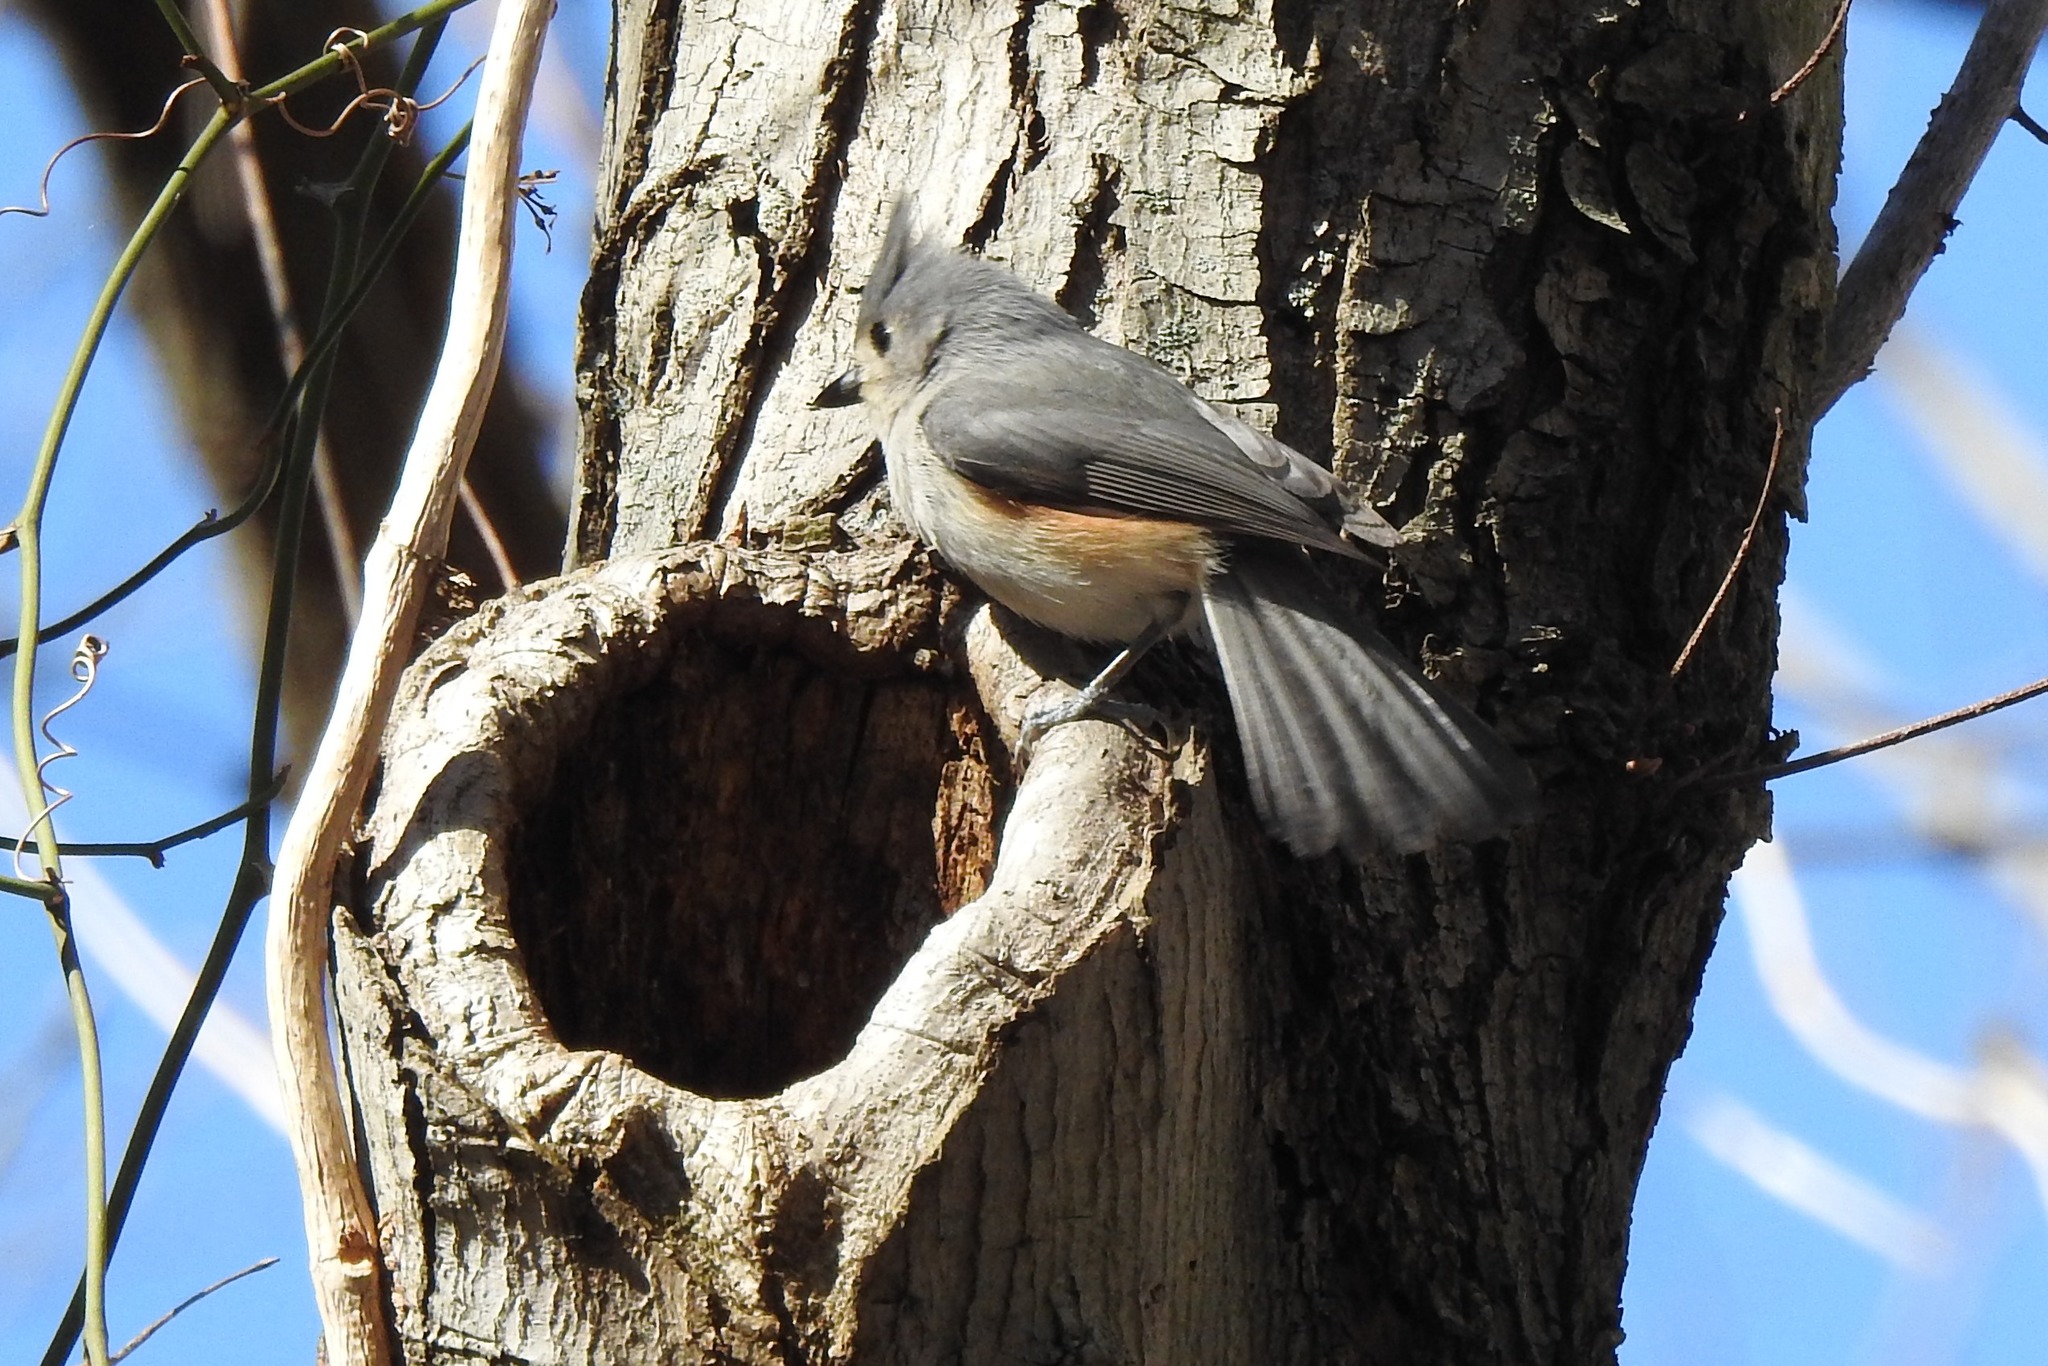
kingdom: Animalia
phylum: Chordata
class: Aves
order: Passeriformes
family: Paridae
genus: Baeolophus
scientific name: Baeolophus bicolor
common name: Tufted titmouse
